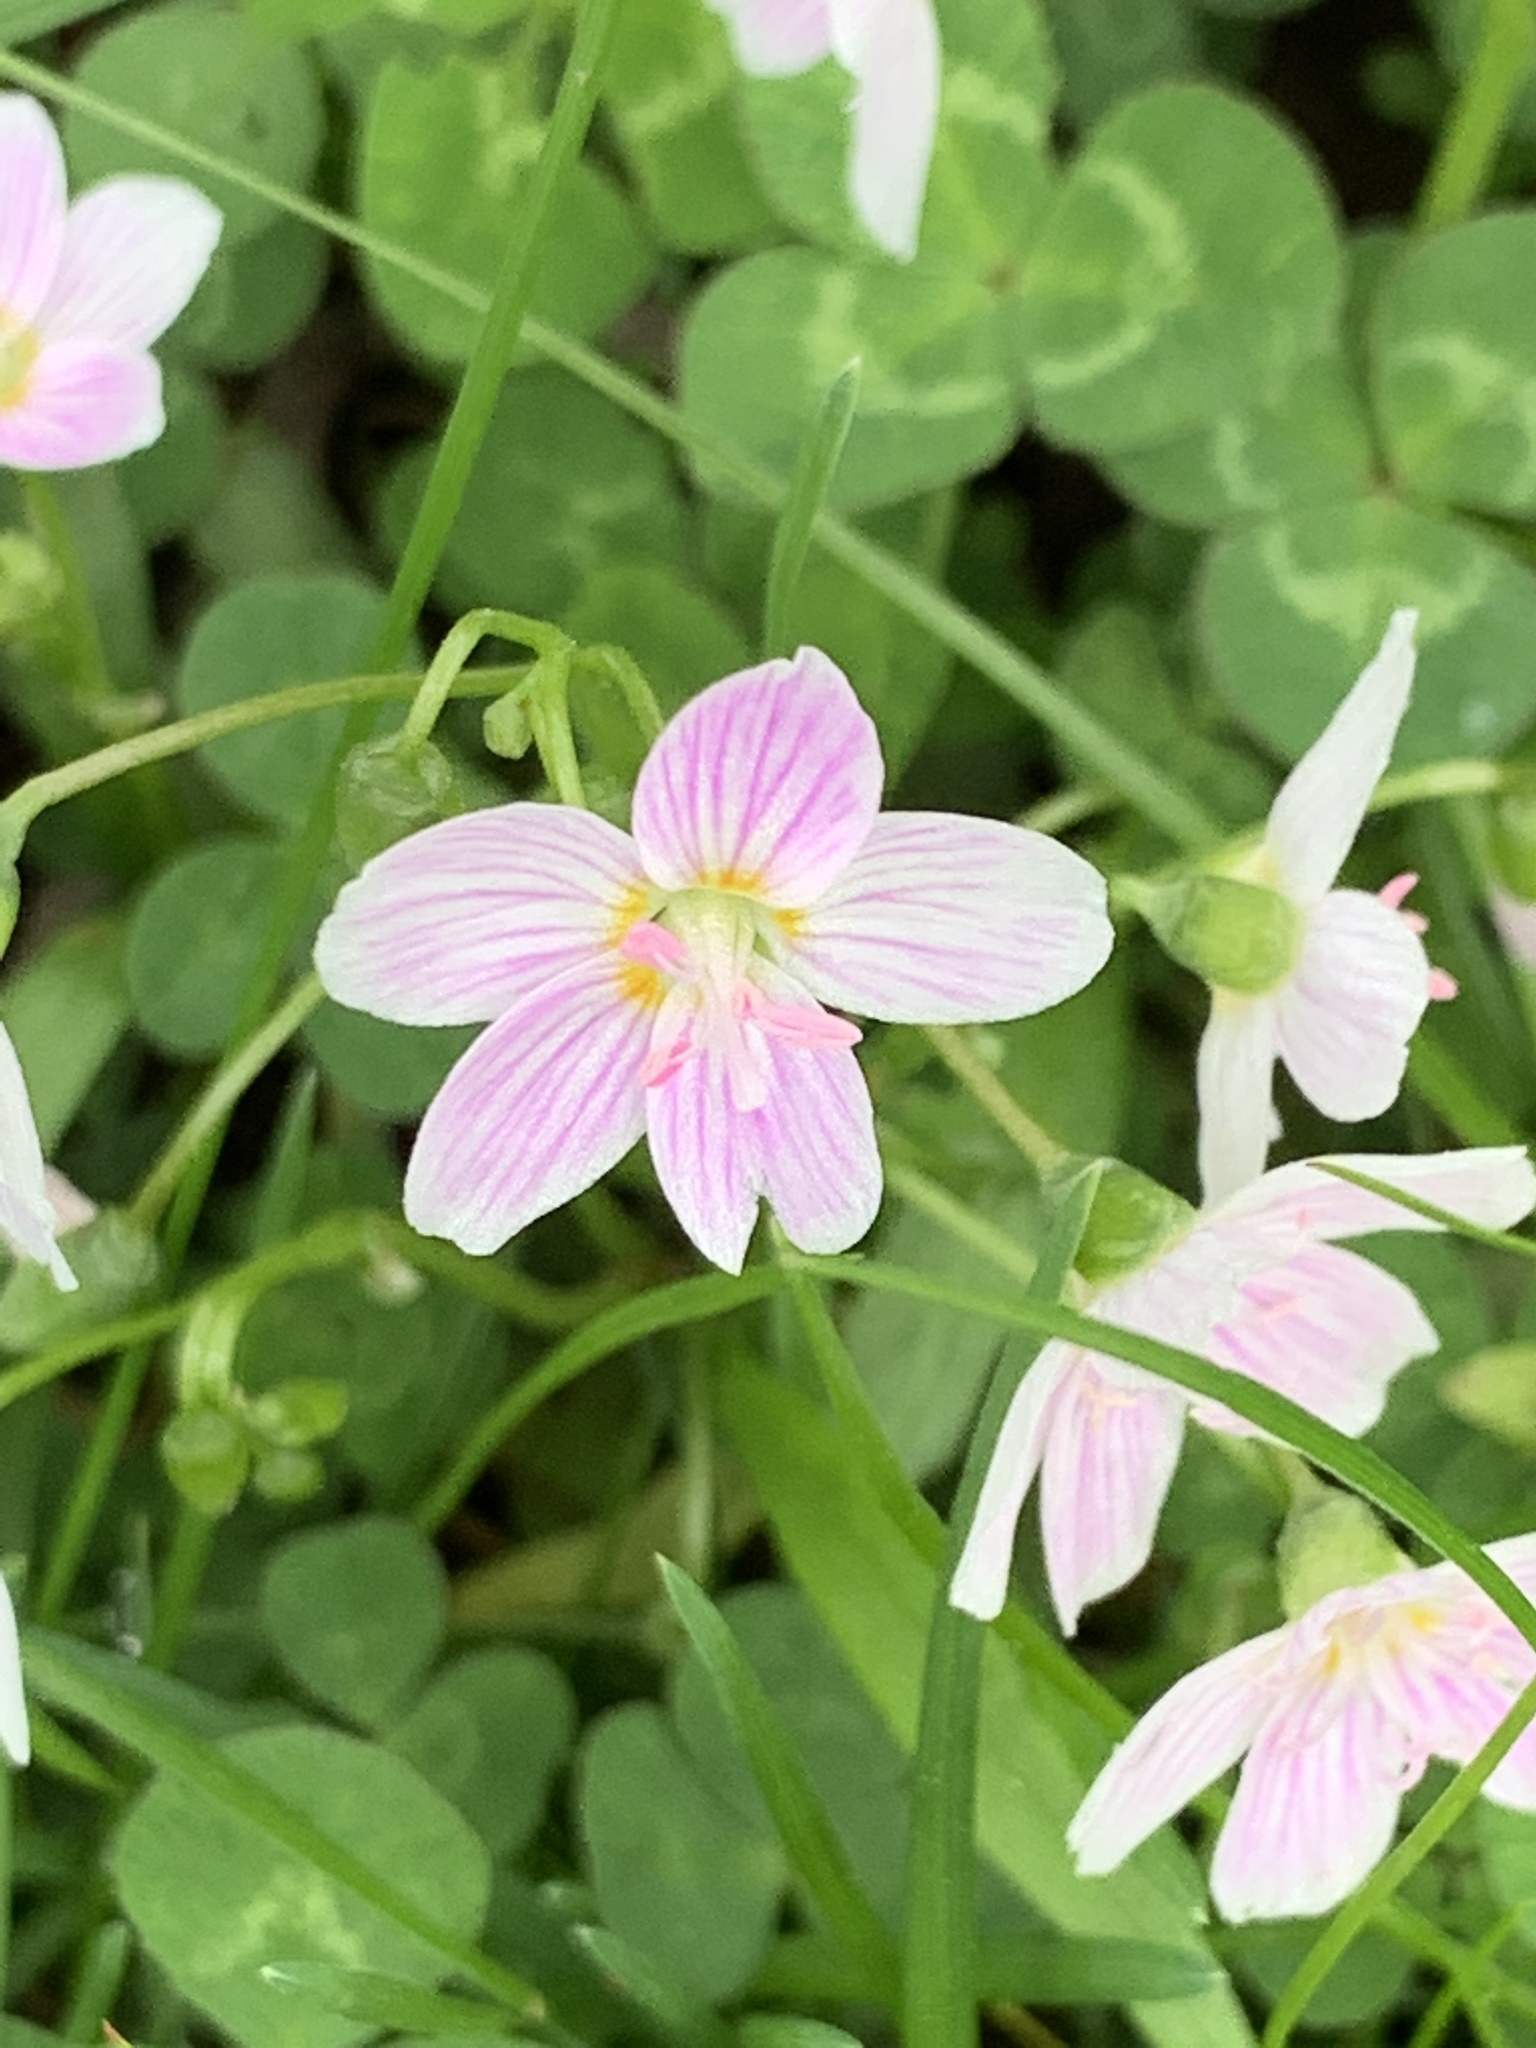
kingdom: Plantae
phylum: Tracheophyta
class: Magnoliopsida
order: Caryophyllales
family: Montiaceae
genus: Claytonia
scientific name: Claytonia virginica
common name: Virginia springbeauty
